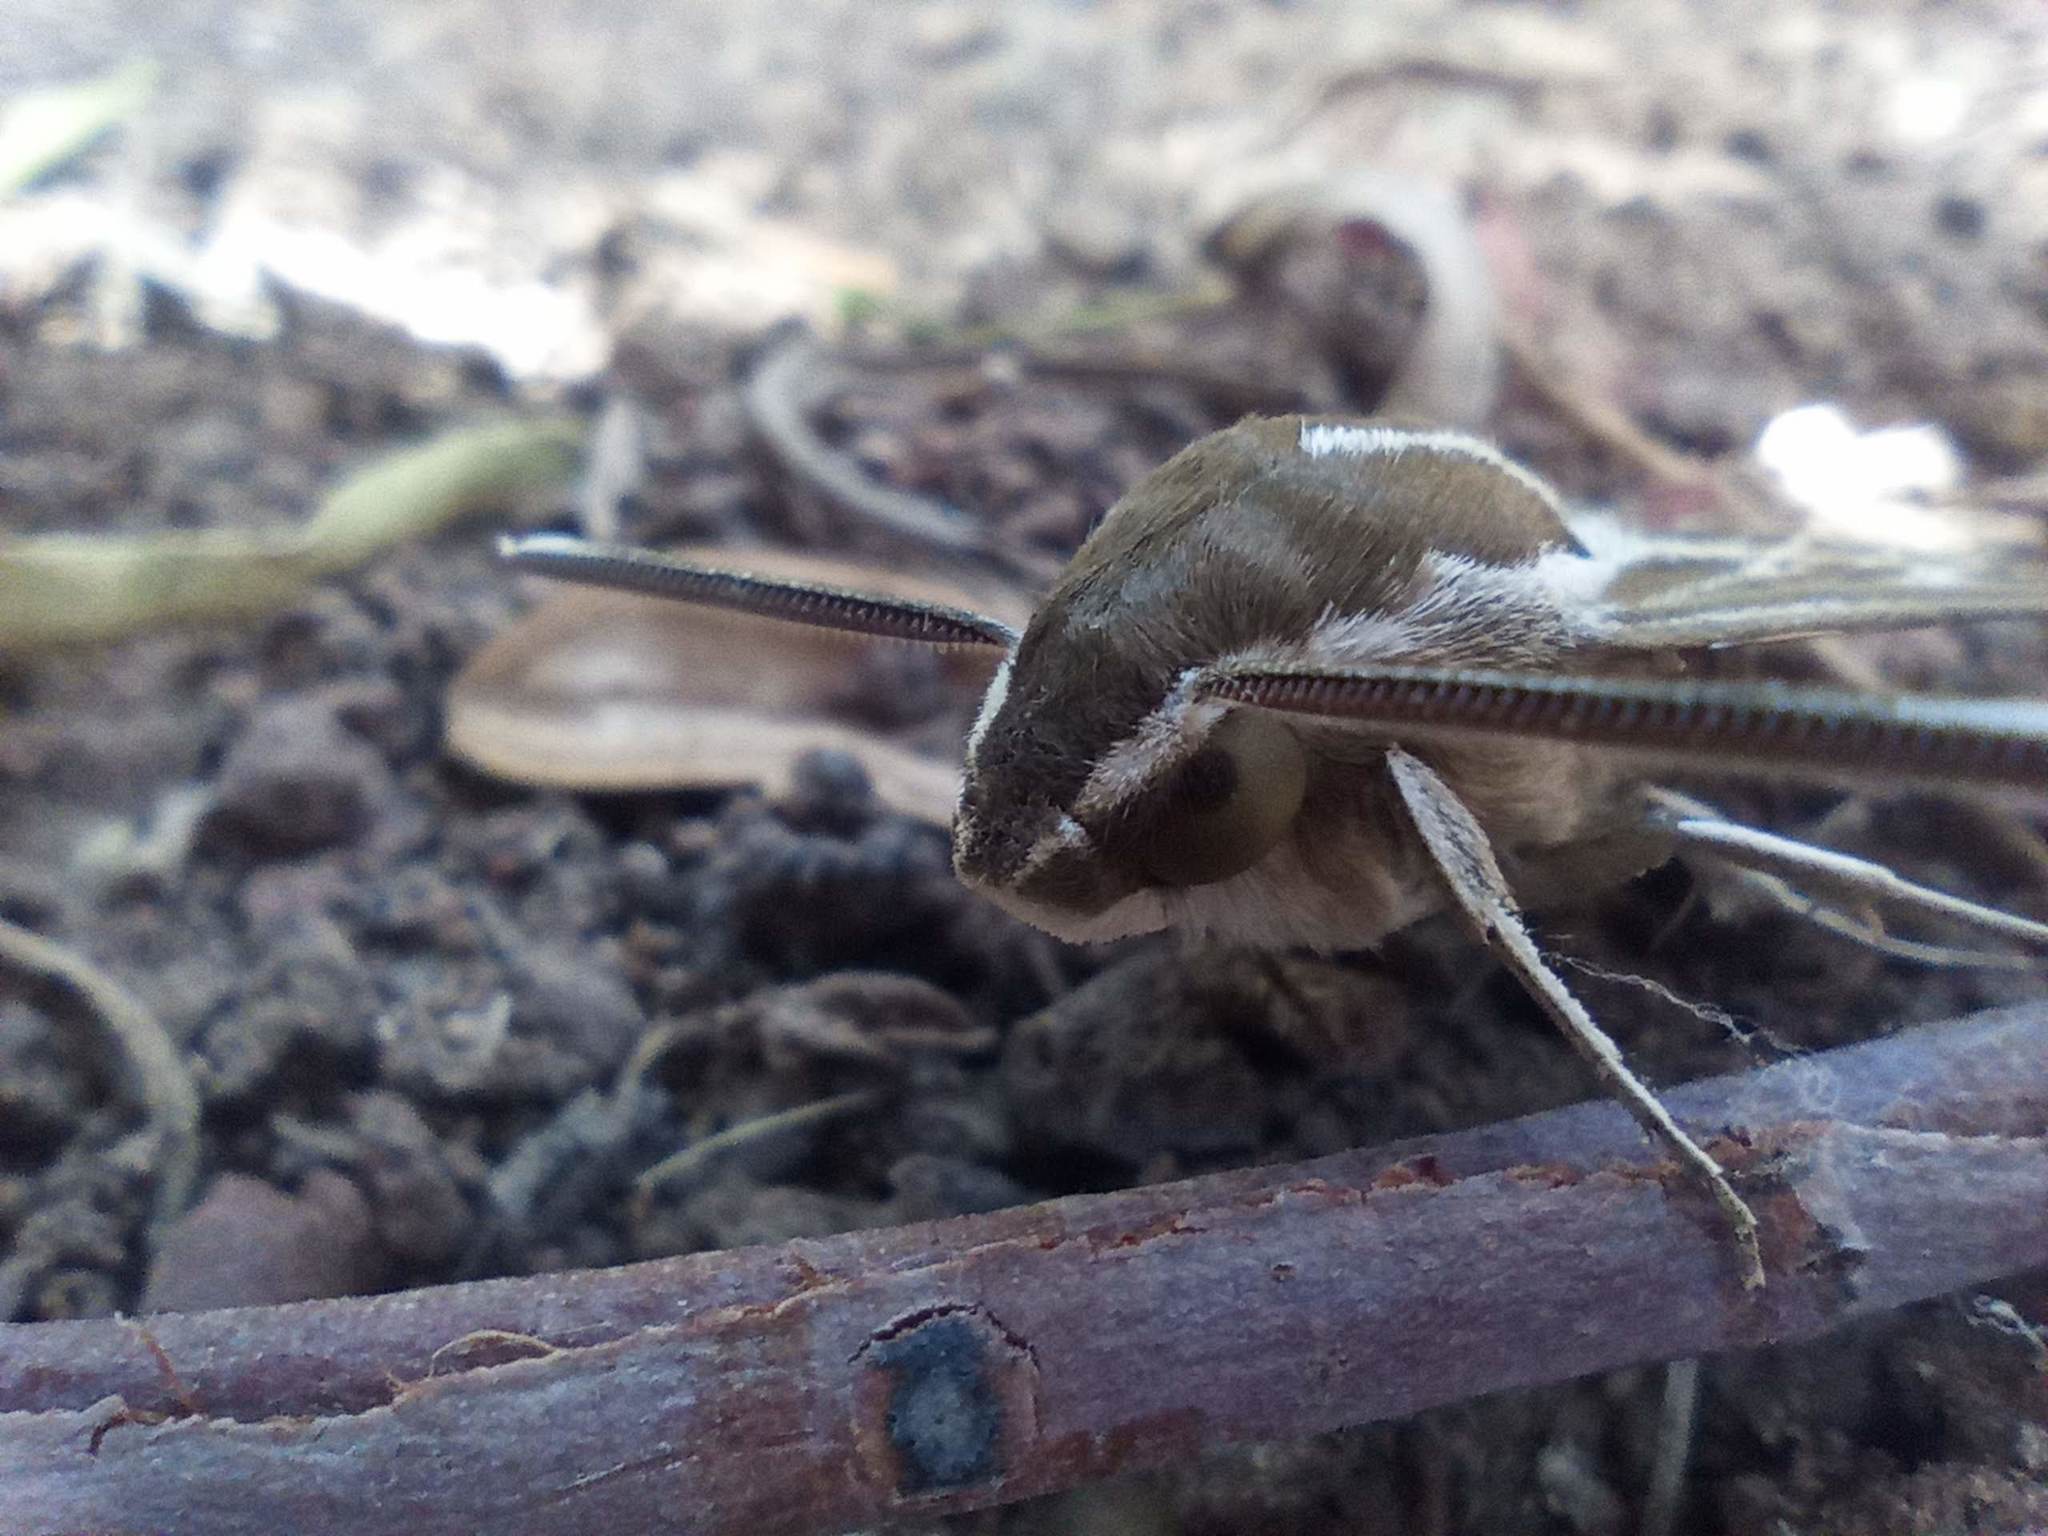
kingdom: Animalia
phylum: Arthropoda
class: Insecta
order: Lepidoptera
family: Sphingidae
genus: Hyles
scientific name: Hyles livornica
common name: Striped hawk-moth
